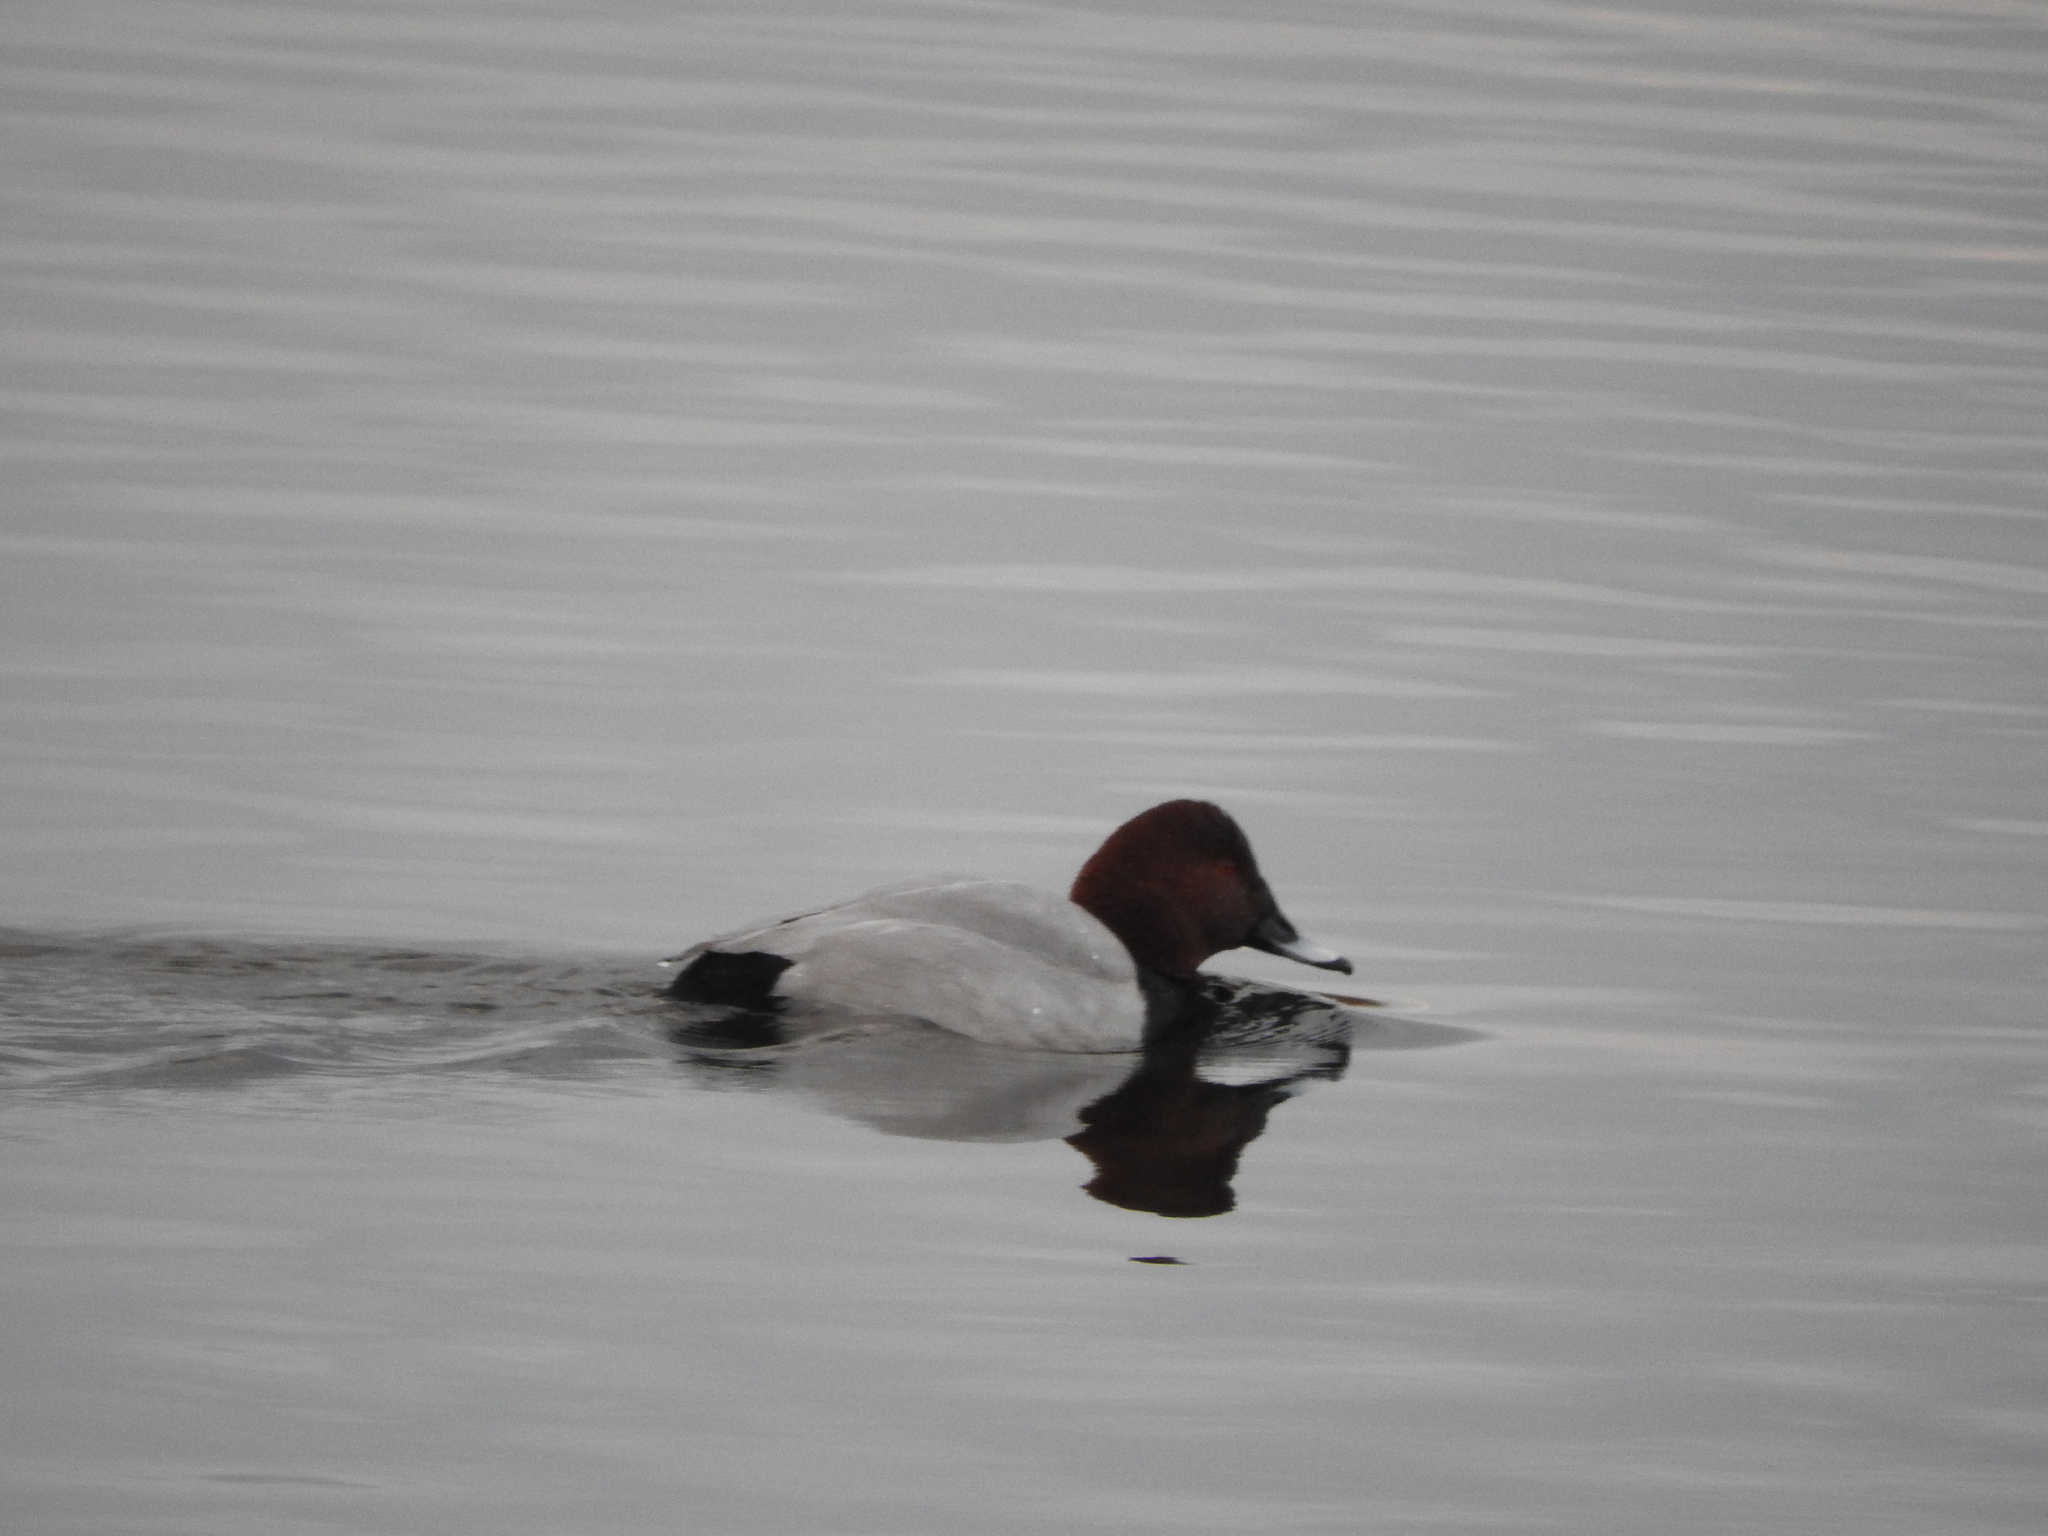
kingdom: Animalia
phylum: Chordata
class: Aves
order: Anseriformes
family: Anatidae
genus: Aythya
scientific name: Aythya ferina
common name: Common pochard
